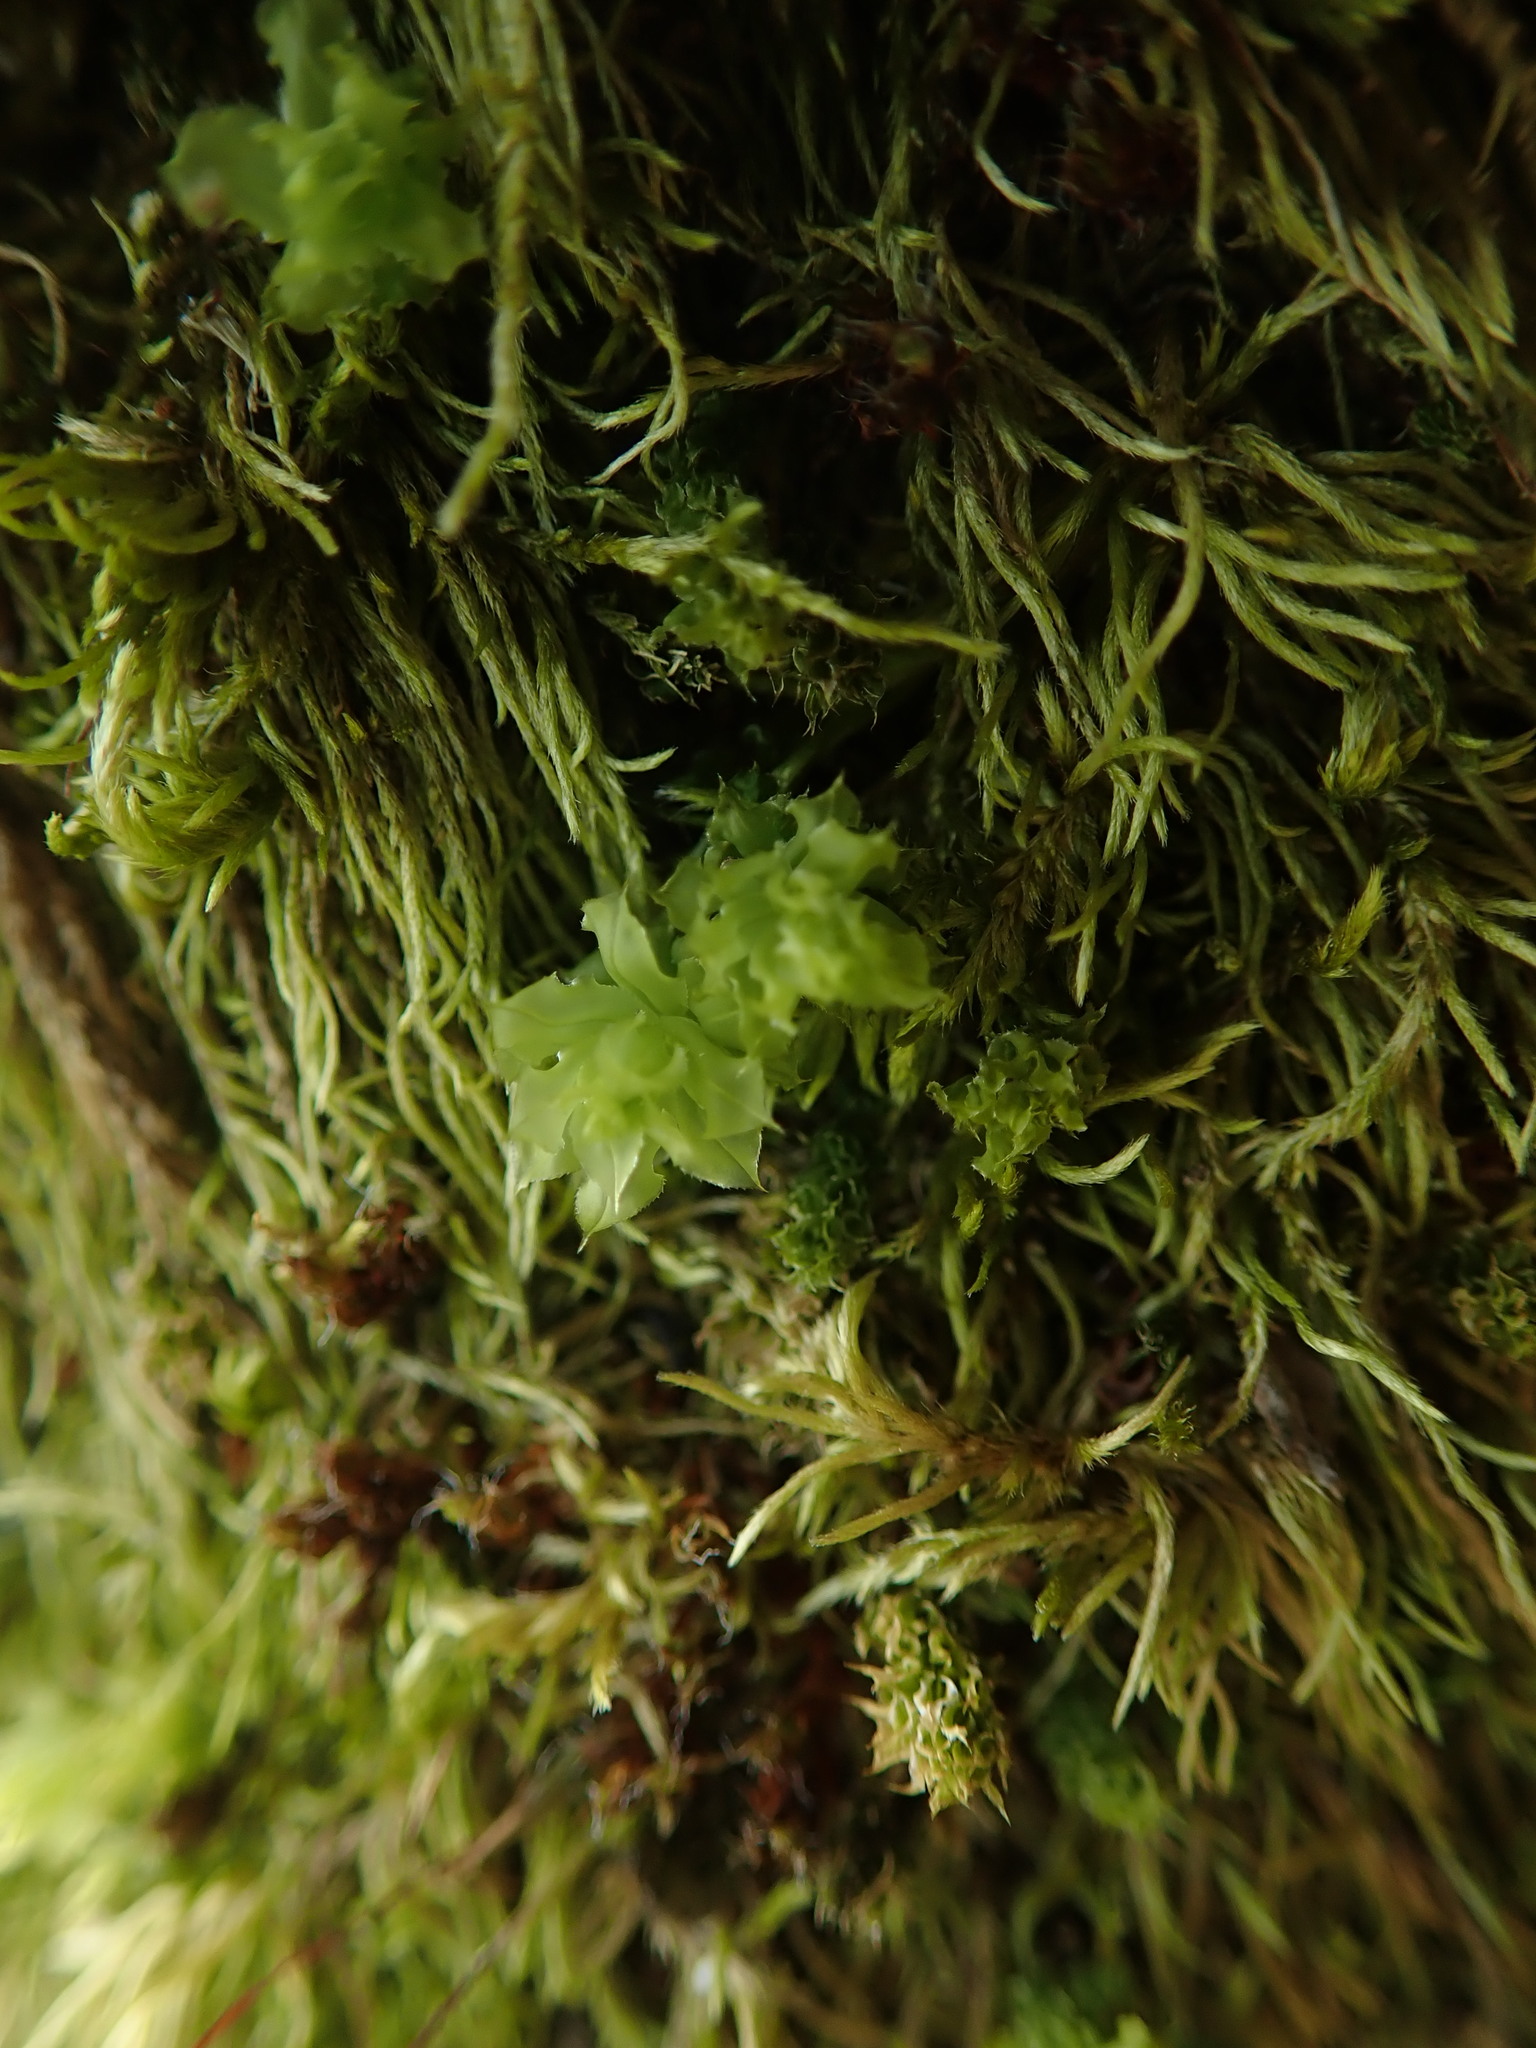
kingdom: Plantae
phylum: Bryophyta
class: Bryopsida
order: Bryales
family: Mniaceae
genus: Plagiomnium
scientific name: Plagiomnium venustum
